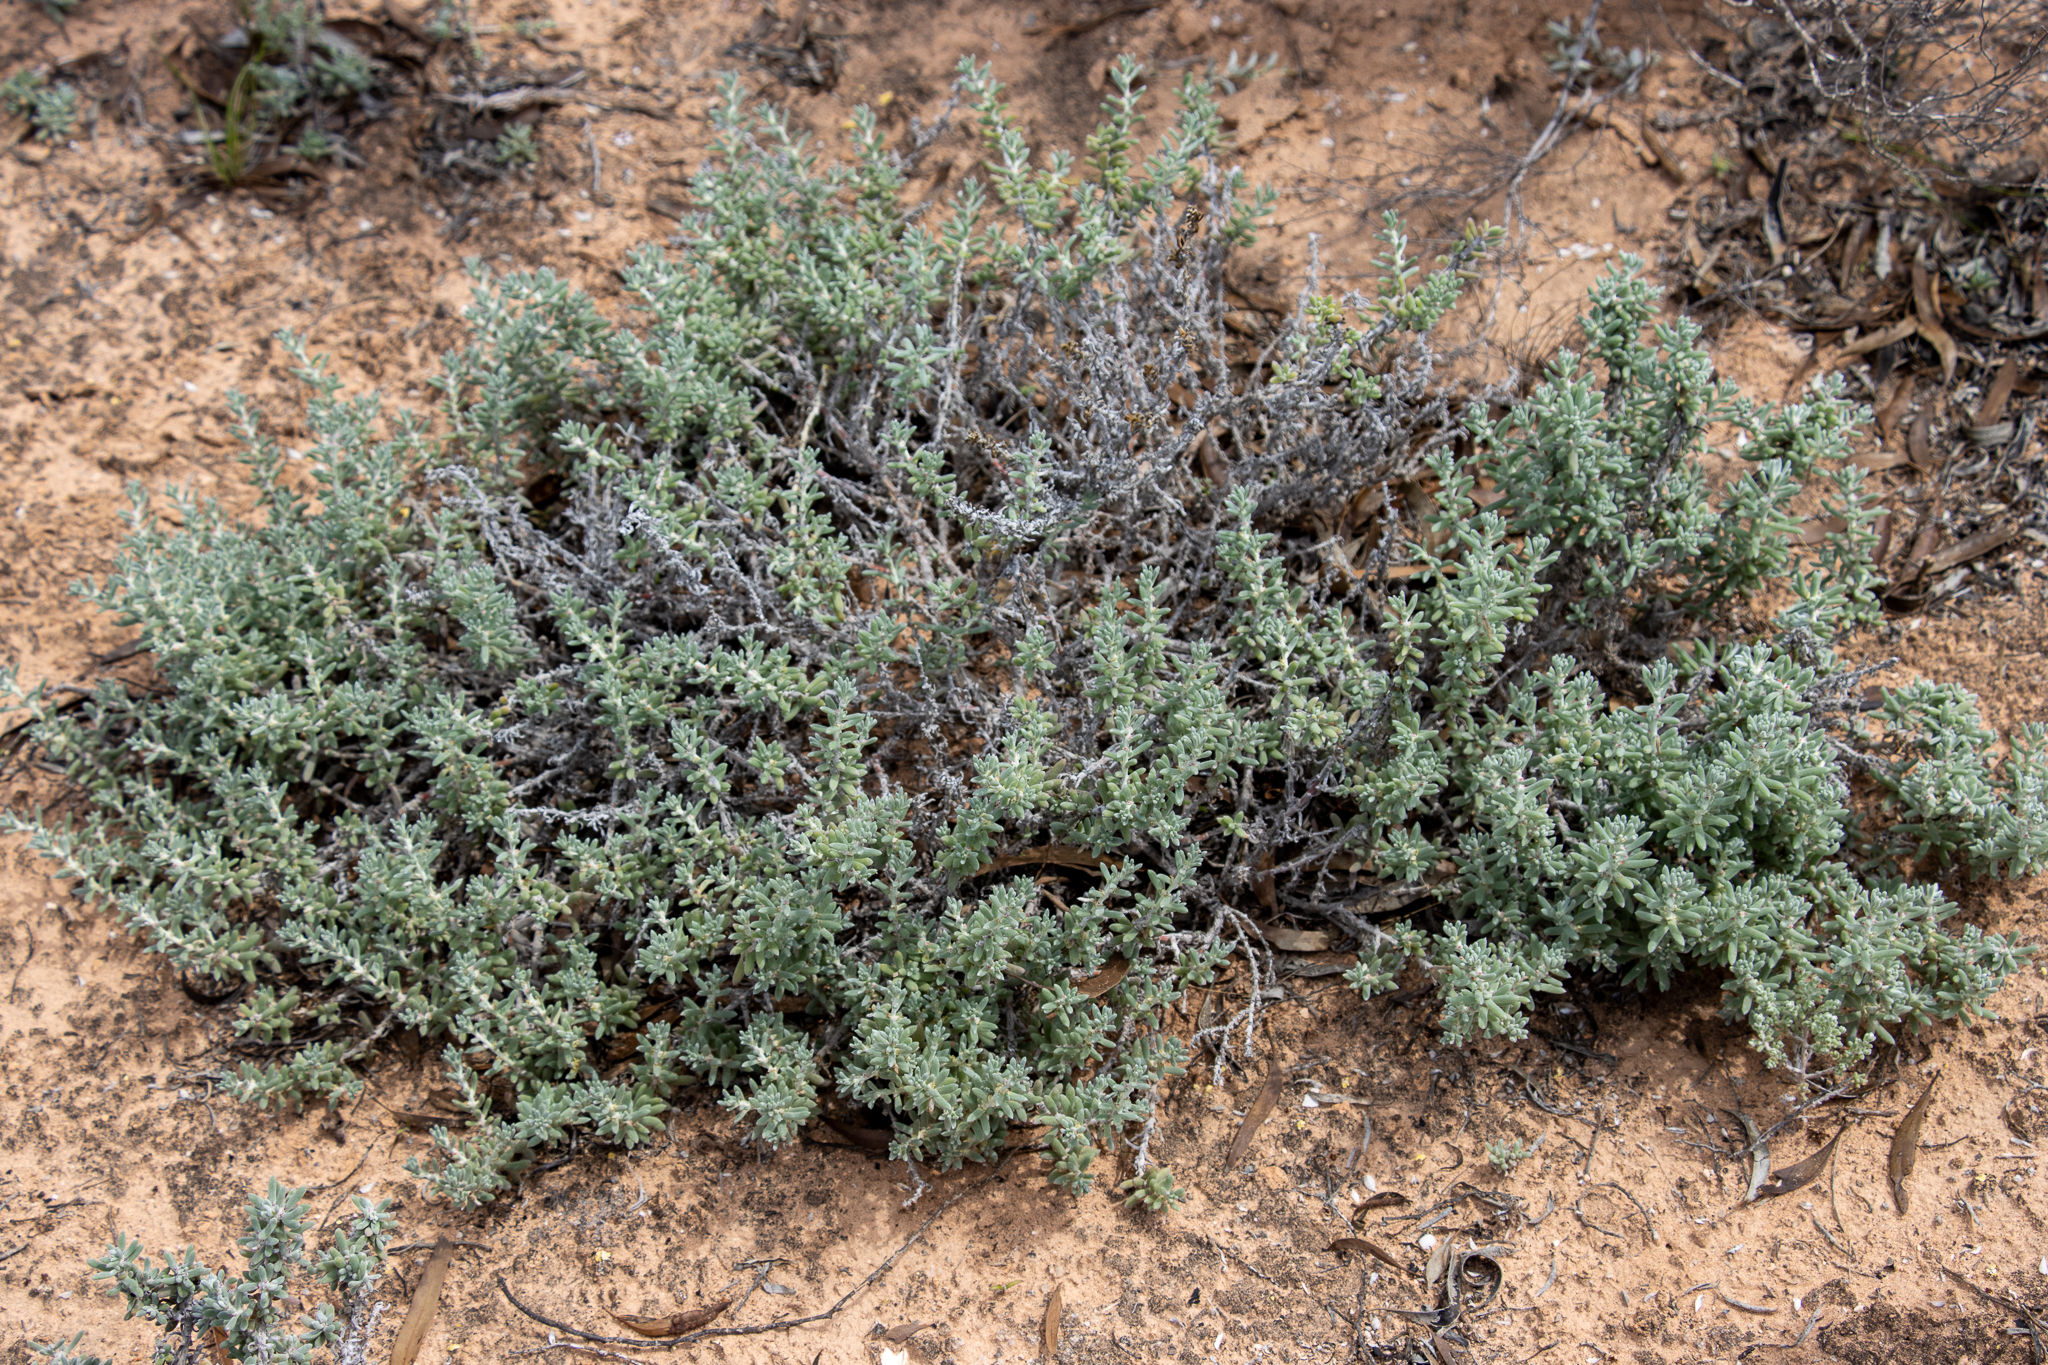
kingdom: Plantae
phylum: Tracheophyta
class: Magnoliopsida
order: Caryophyllales
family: Amaranthaceae
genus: Sclerolaena
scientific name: Sclerolaena uniflora
